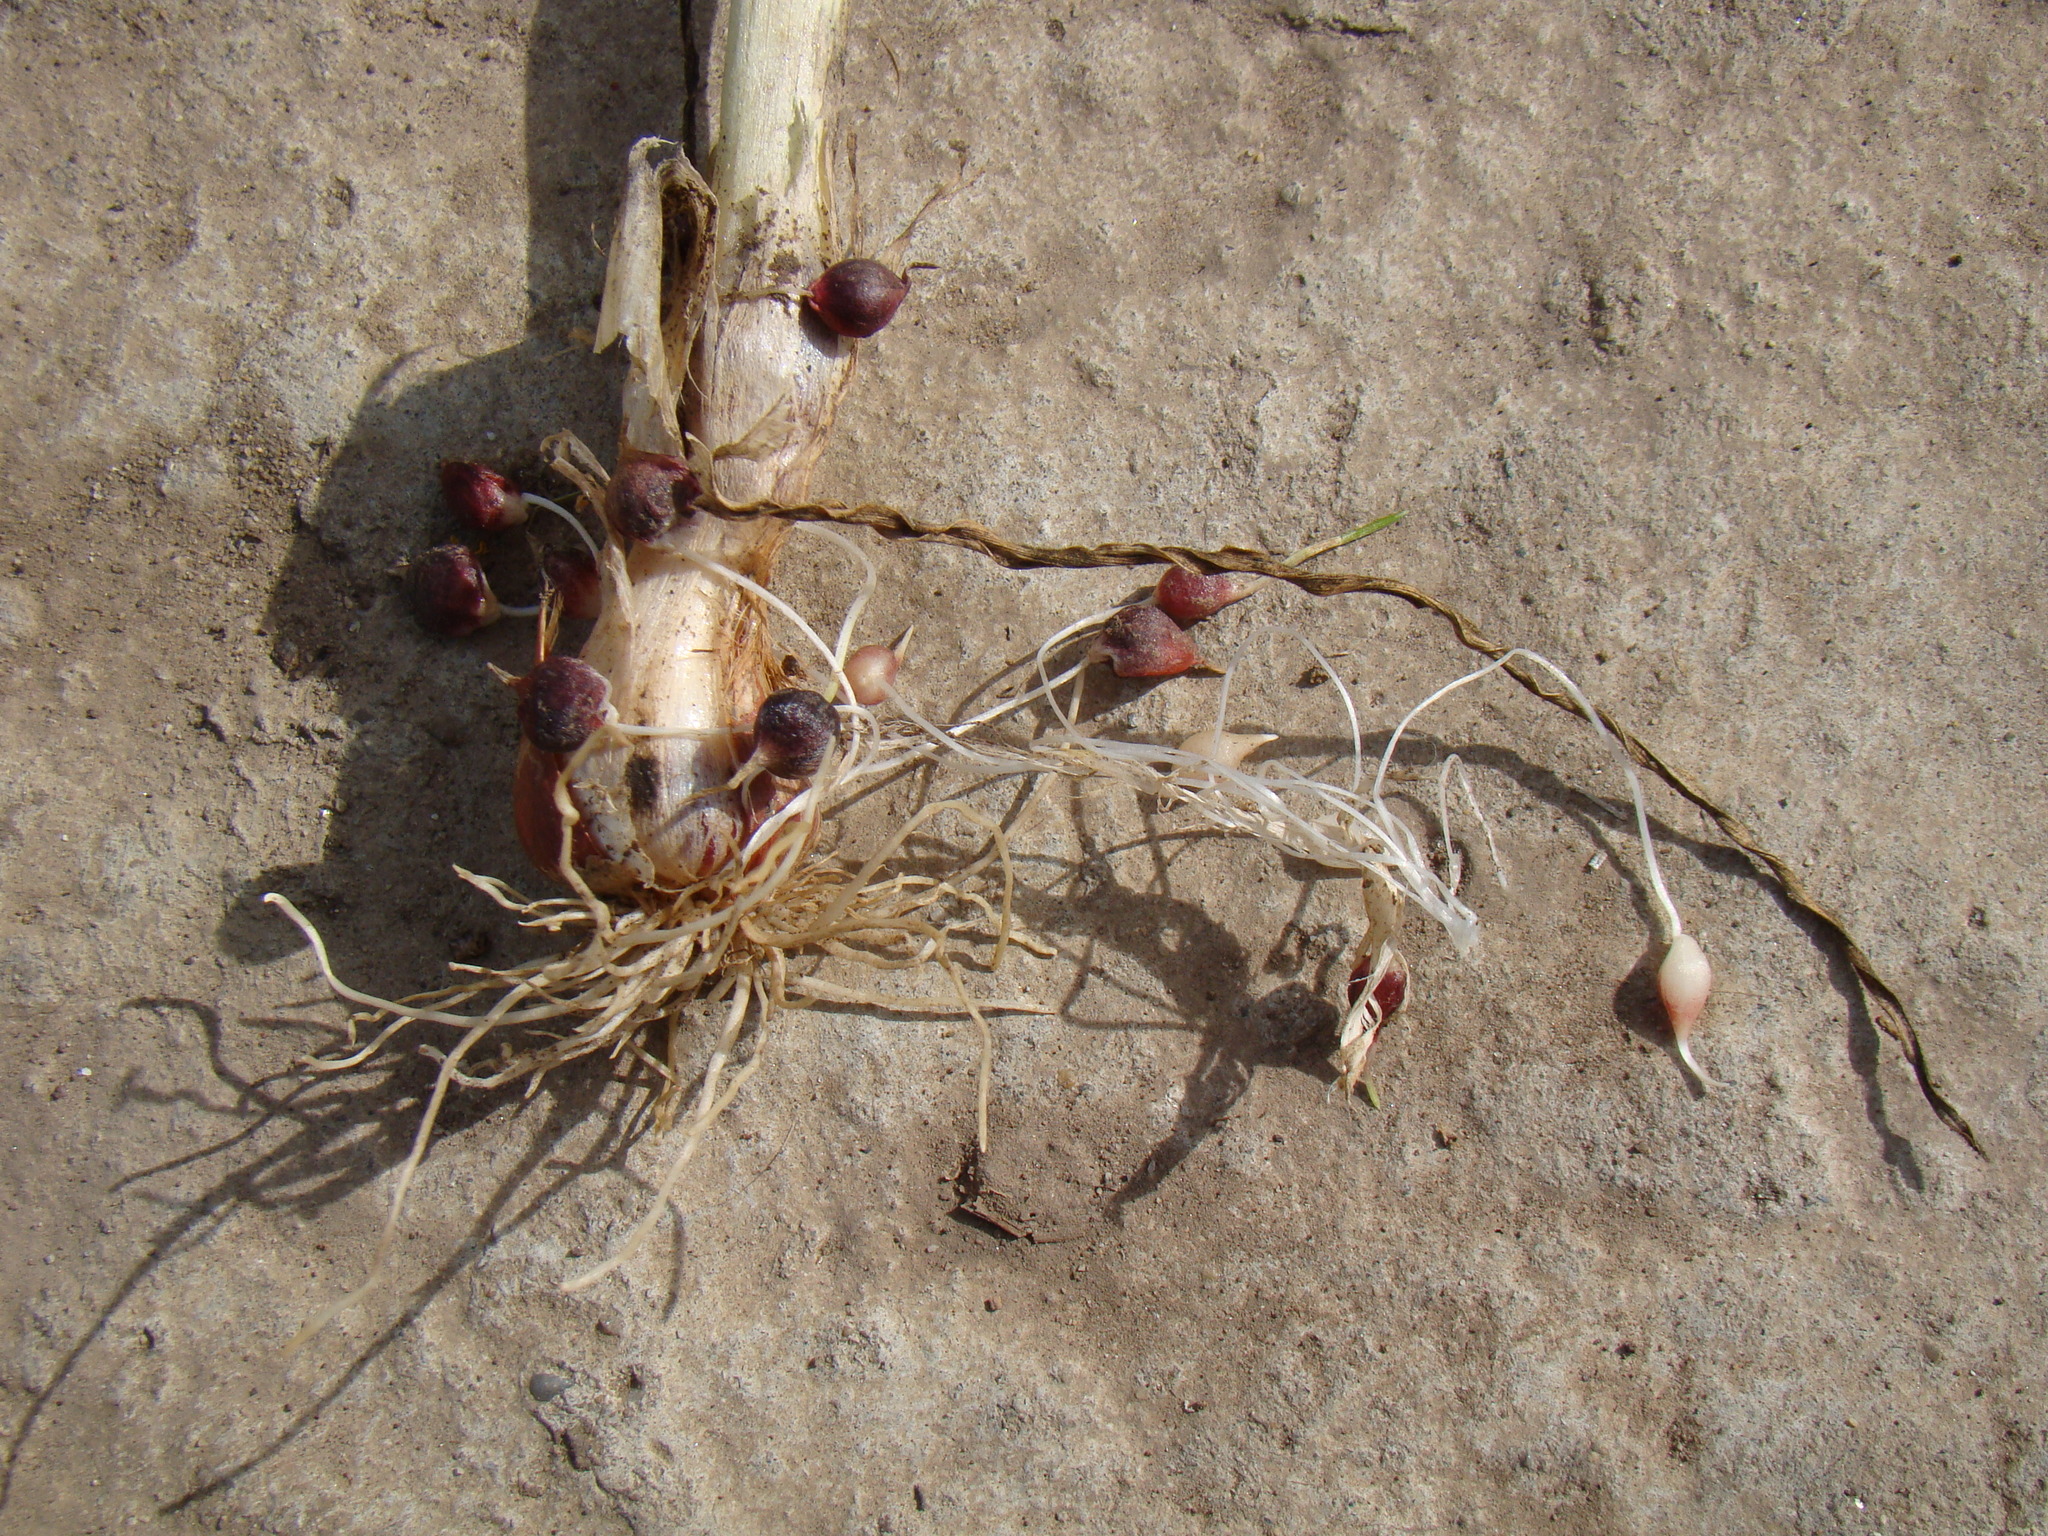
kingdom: Plantae
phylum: Tracheophyta
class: Liliopsida
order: Asparagales
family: Amaryllidaceae
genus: Allium
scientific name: Allium rotundum
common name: Sand leek
